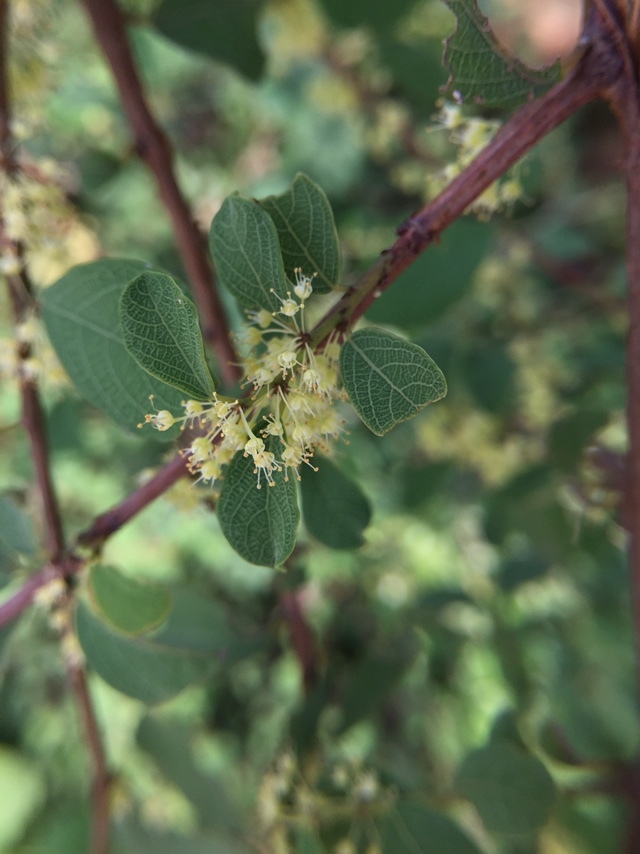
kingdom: Plantae
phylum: Tracheophyta
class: Magnoliopsida
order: Malpighiales
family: Phyllanthaceae
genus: Flueggea
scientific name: Flueggea leucopyrus
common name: Bushweed
